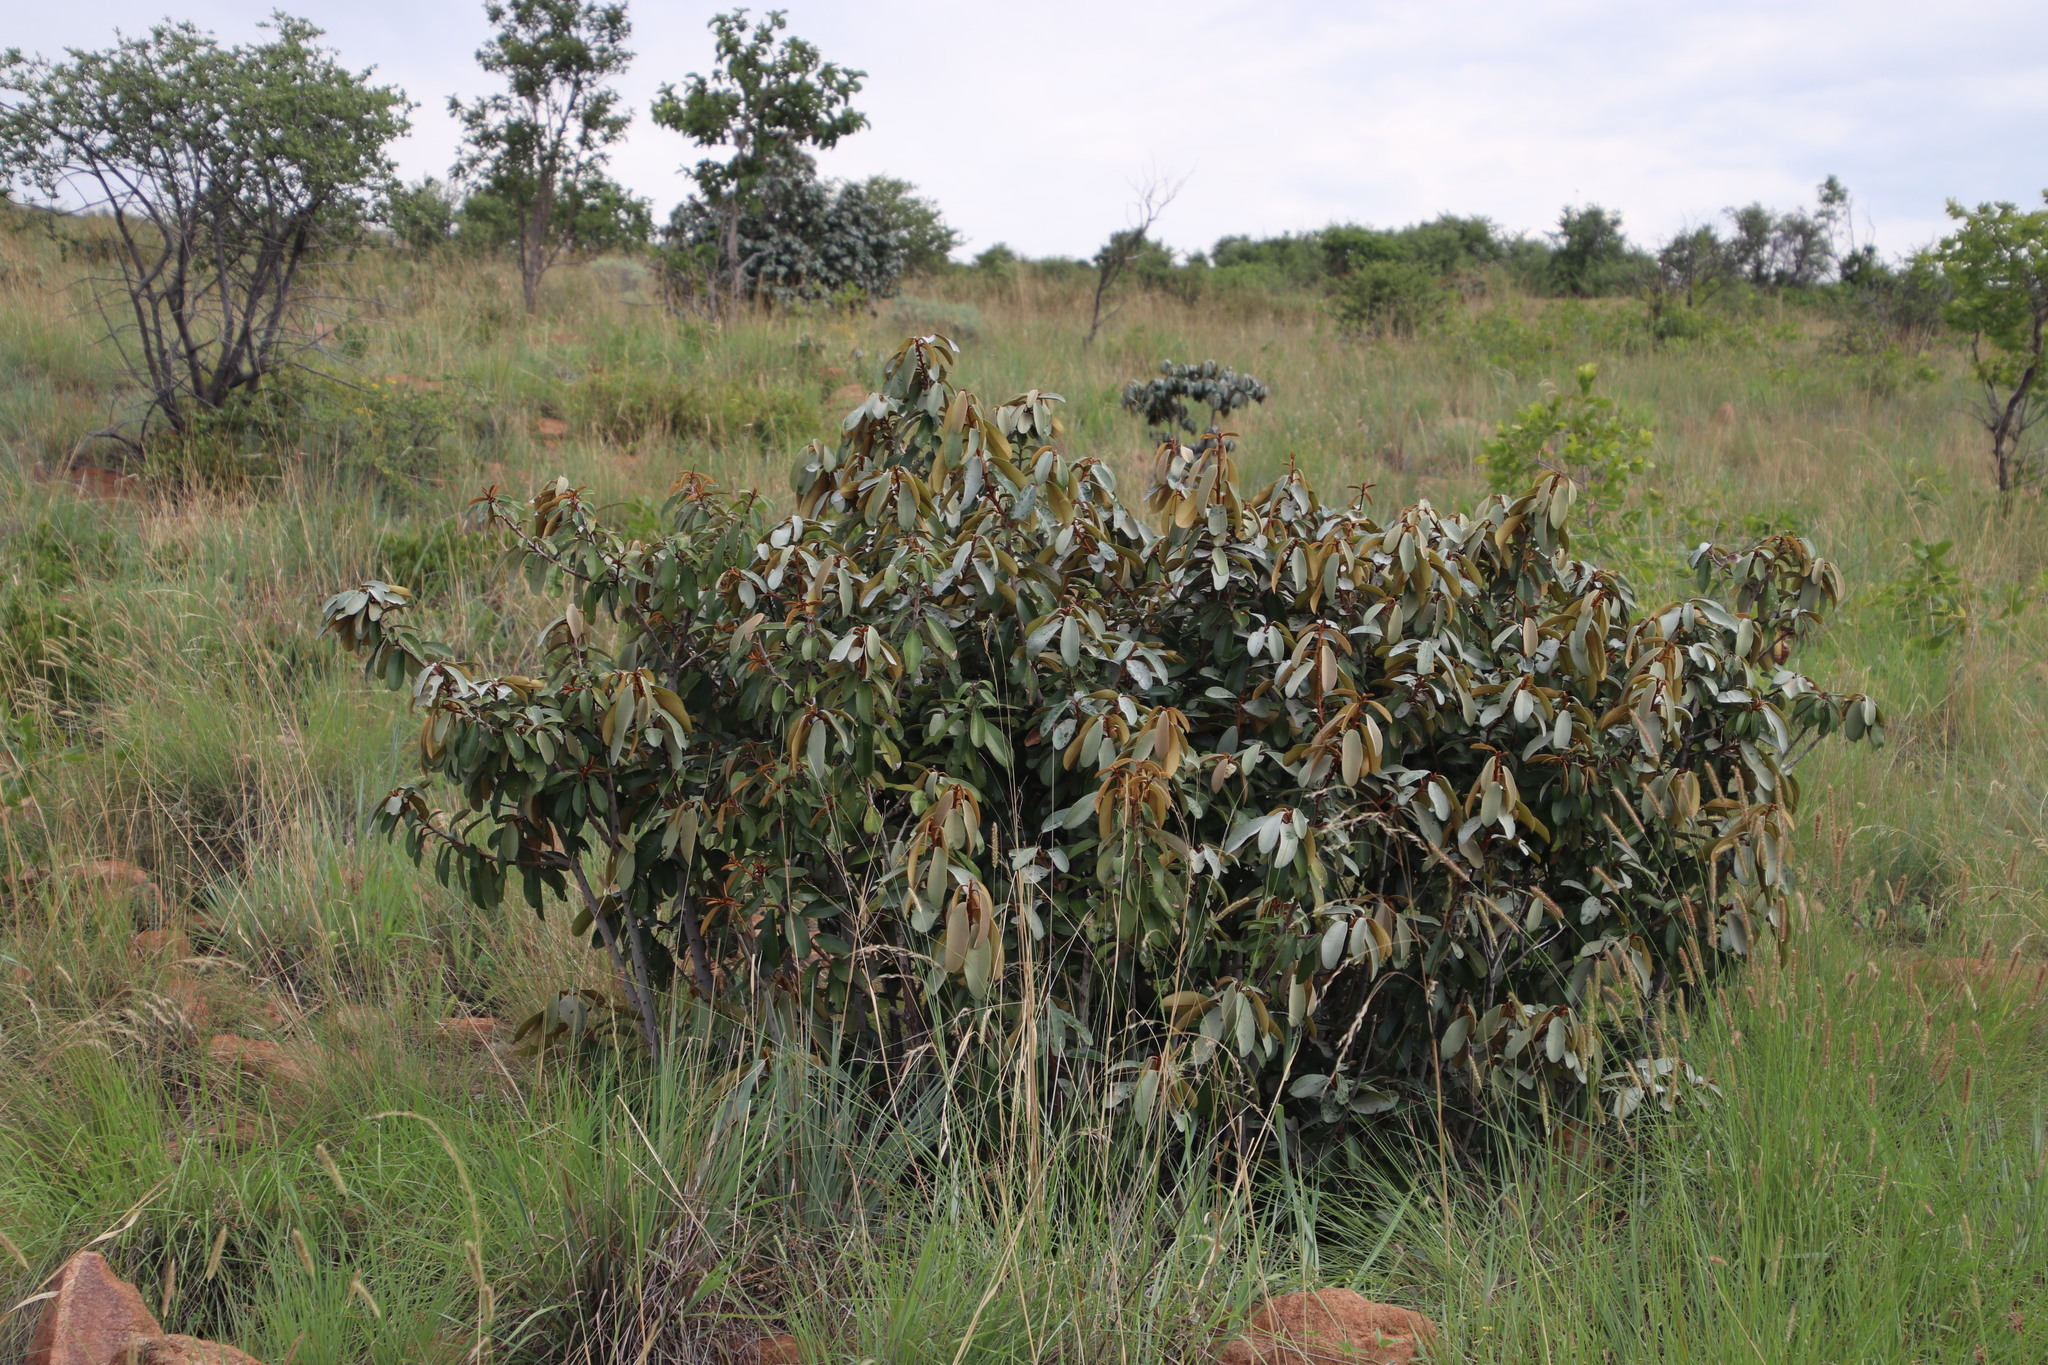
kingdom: Plantae
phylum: Tracheophyta
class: Magnoliopsida
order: Ericales
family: Sapotaceae
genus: Englerophytum
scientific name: Englerophytum magalismontanum
